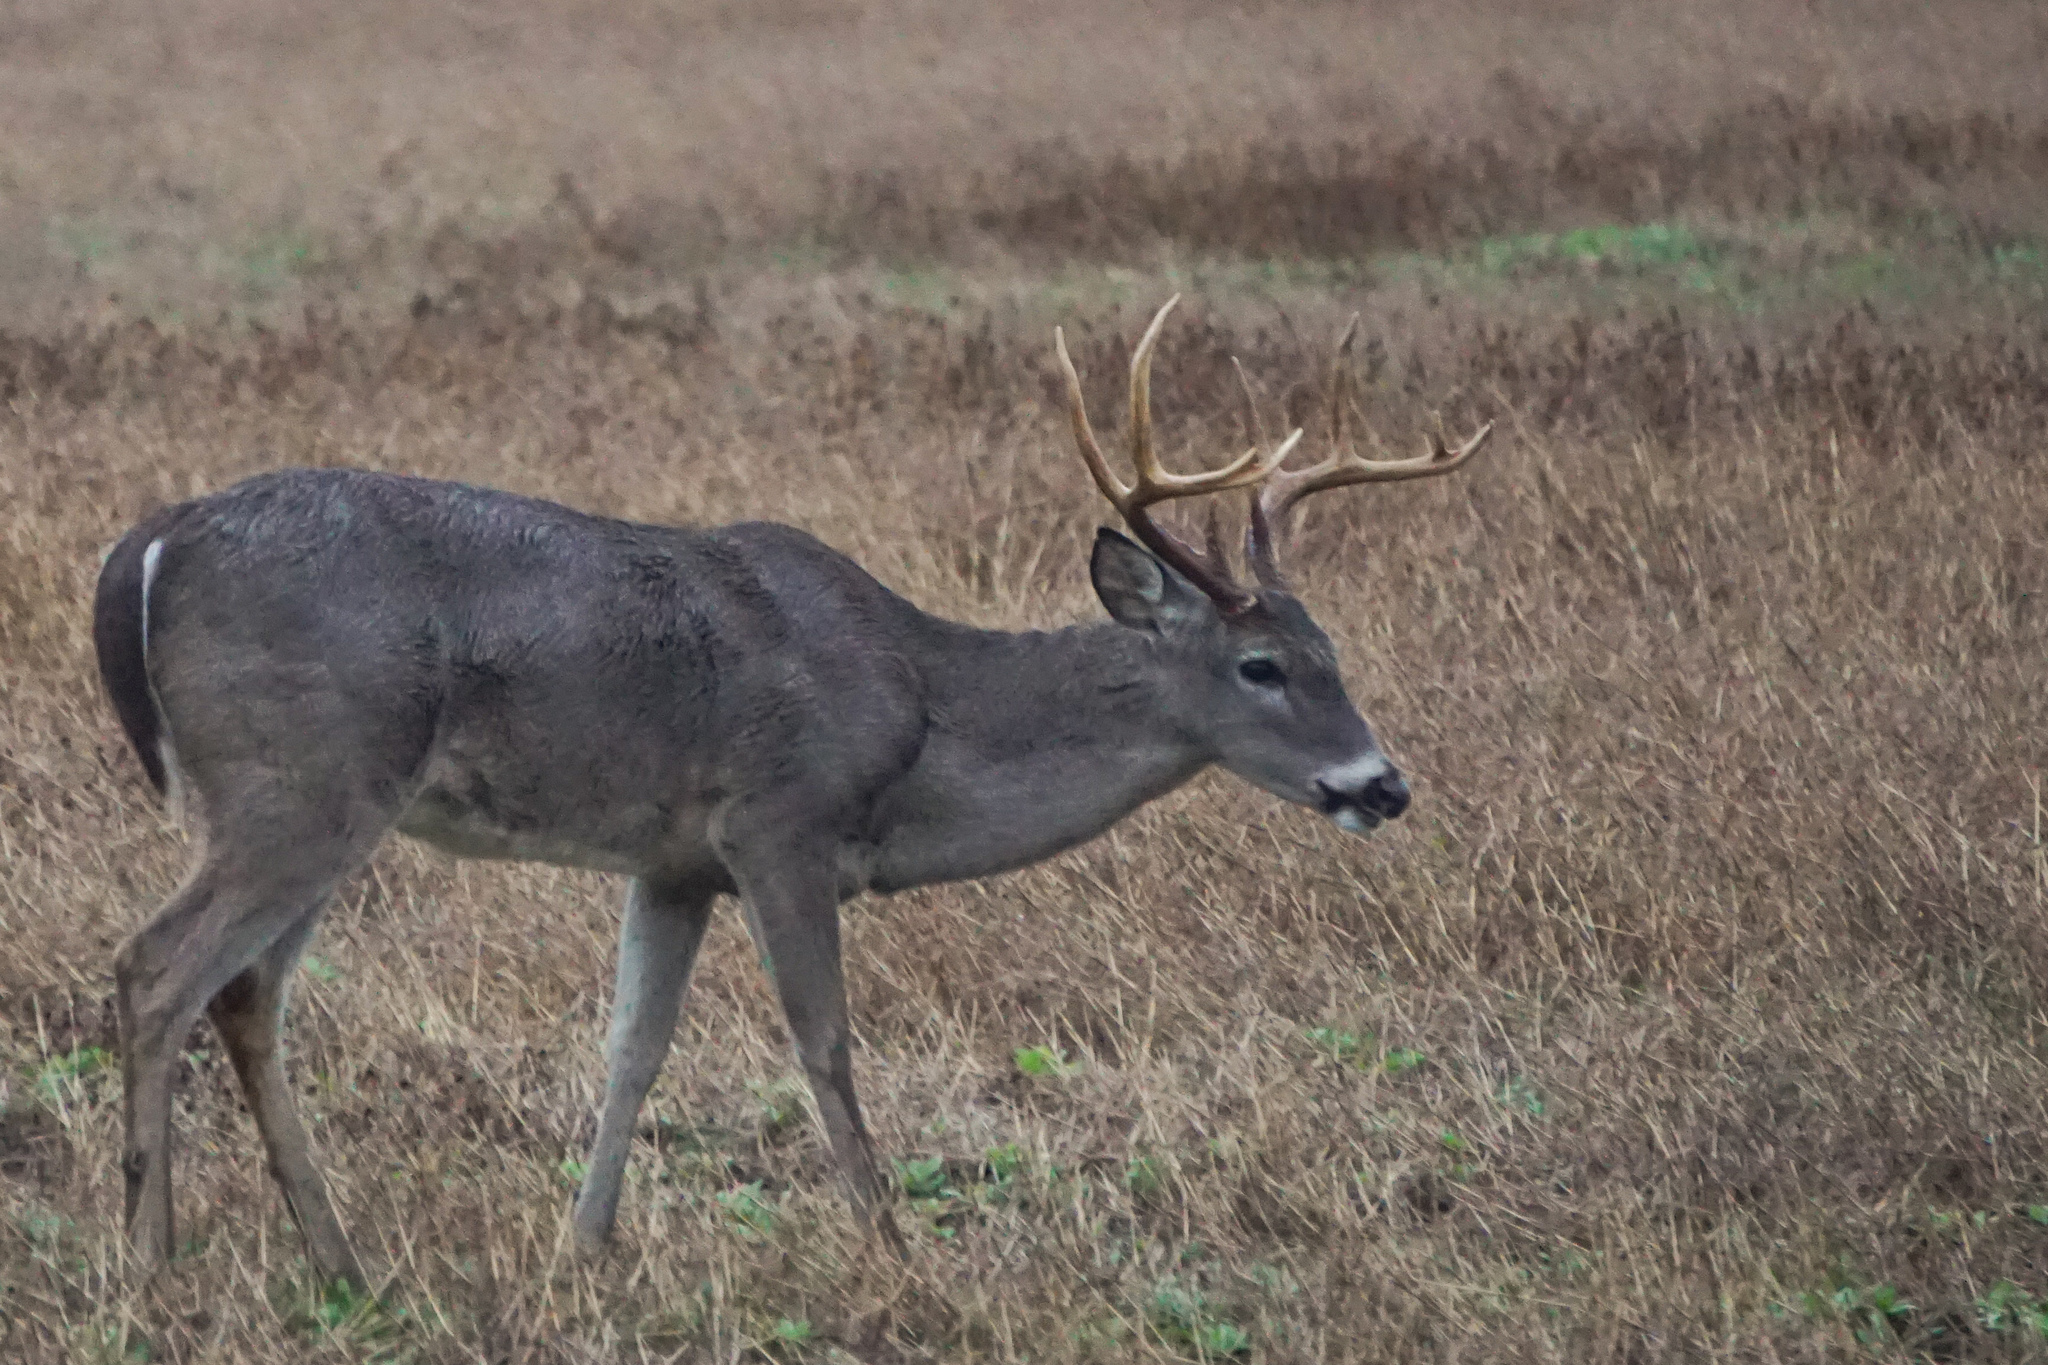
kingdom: Animalia
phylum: Chordata
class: Mammalia
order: Artiodactyla
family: Cervidae
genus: Odocoileus
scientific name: Odocoileus virginianus
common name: White-tailed deer
